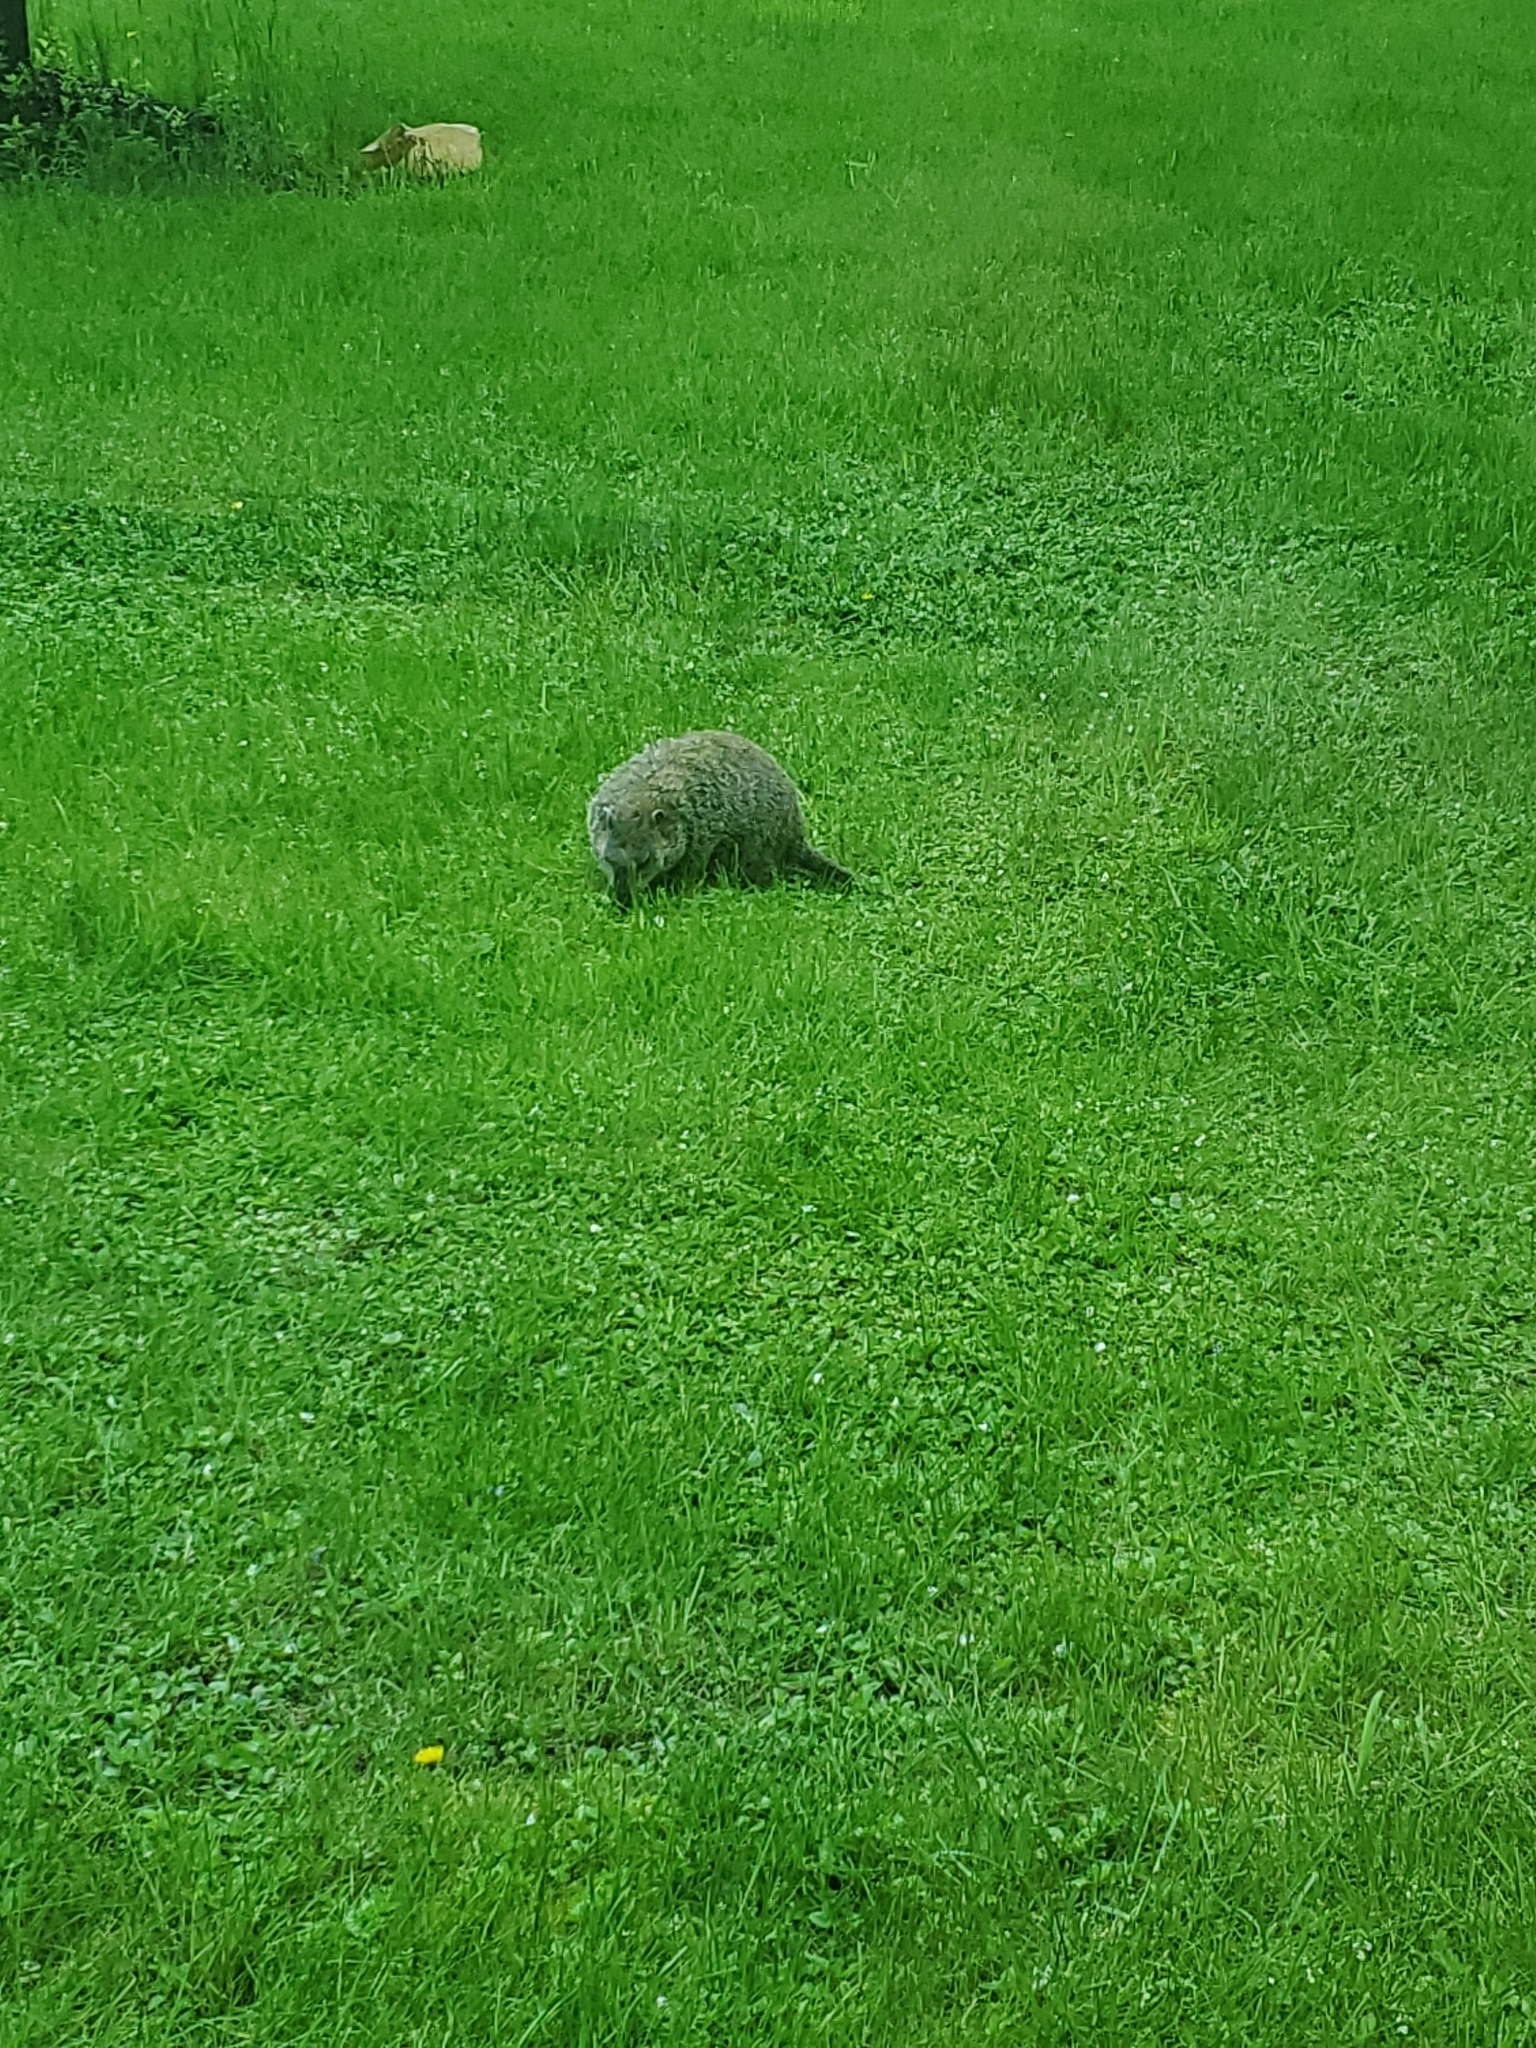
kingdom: Animalia
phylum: Chordata
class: Mammalia
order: Rodentia
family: Sciuridae
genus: Marmota
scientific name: Marmota monax
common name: Groundhog
